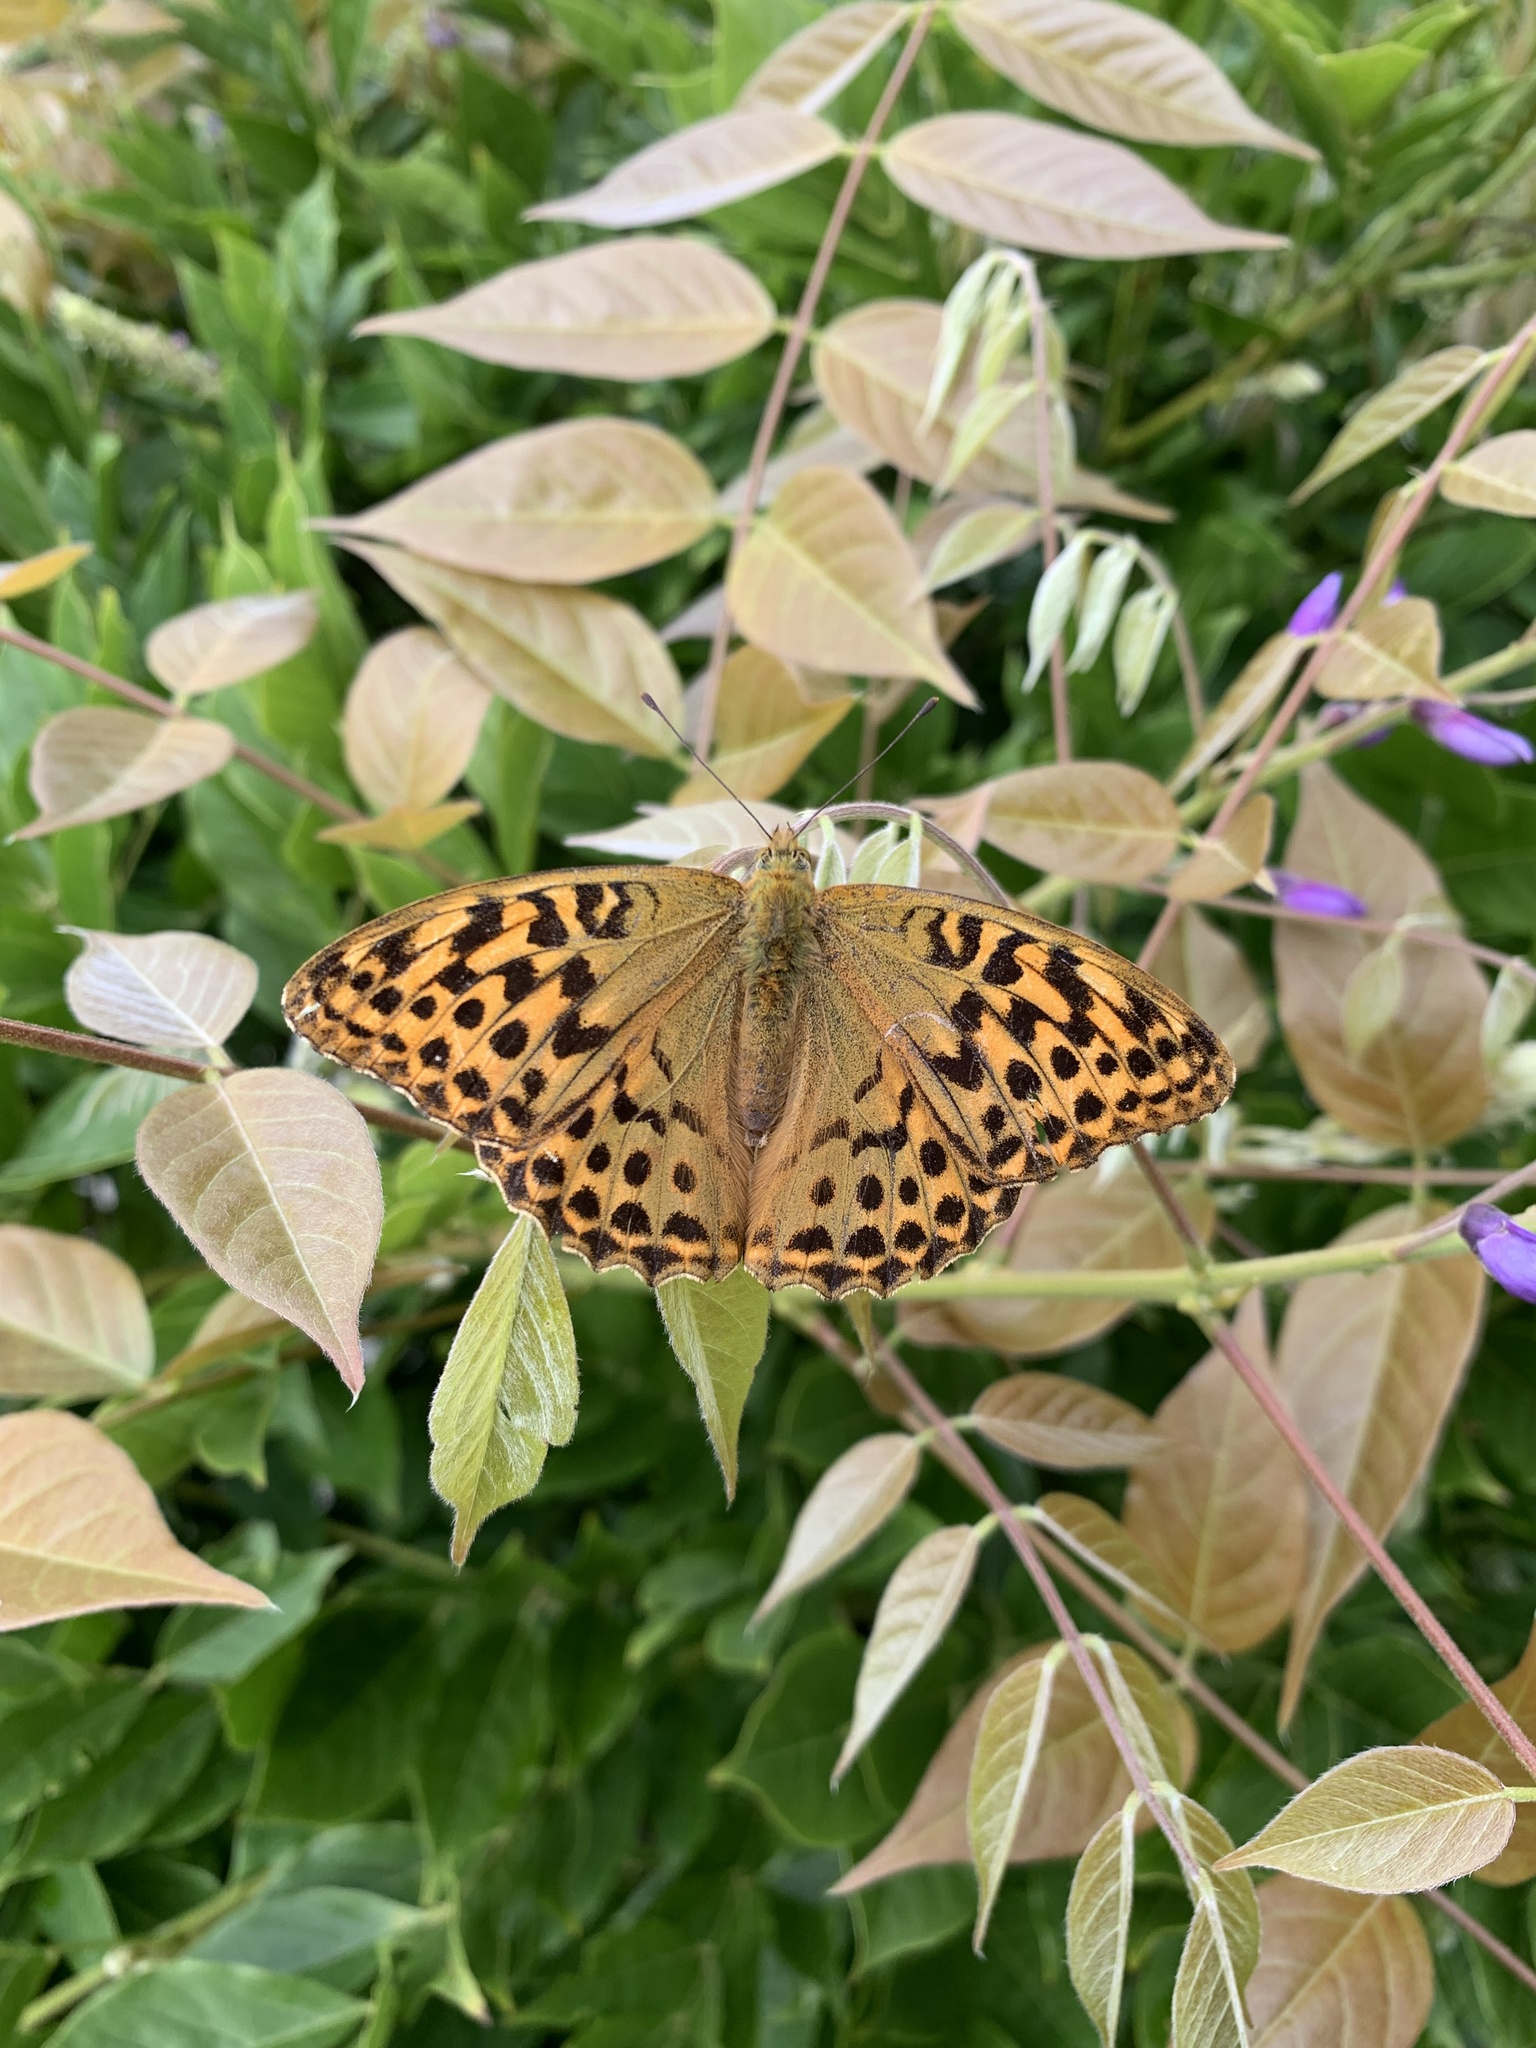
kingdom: Animalia
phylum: Arthropoda
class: Insecta
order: Lepidoptera
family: Nymphalidae
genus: Argynnis
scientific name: Argynnis paphia
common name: Silver-washed fritillary
